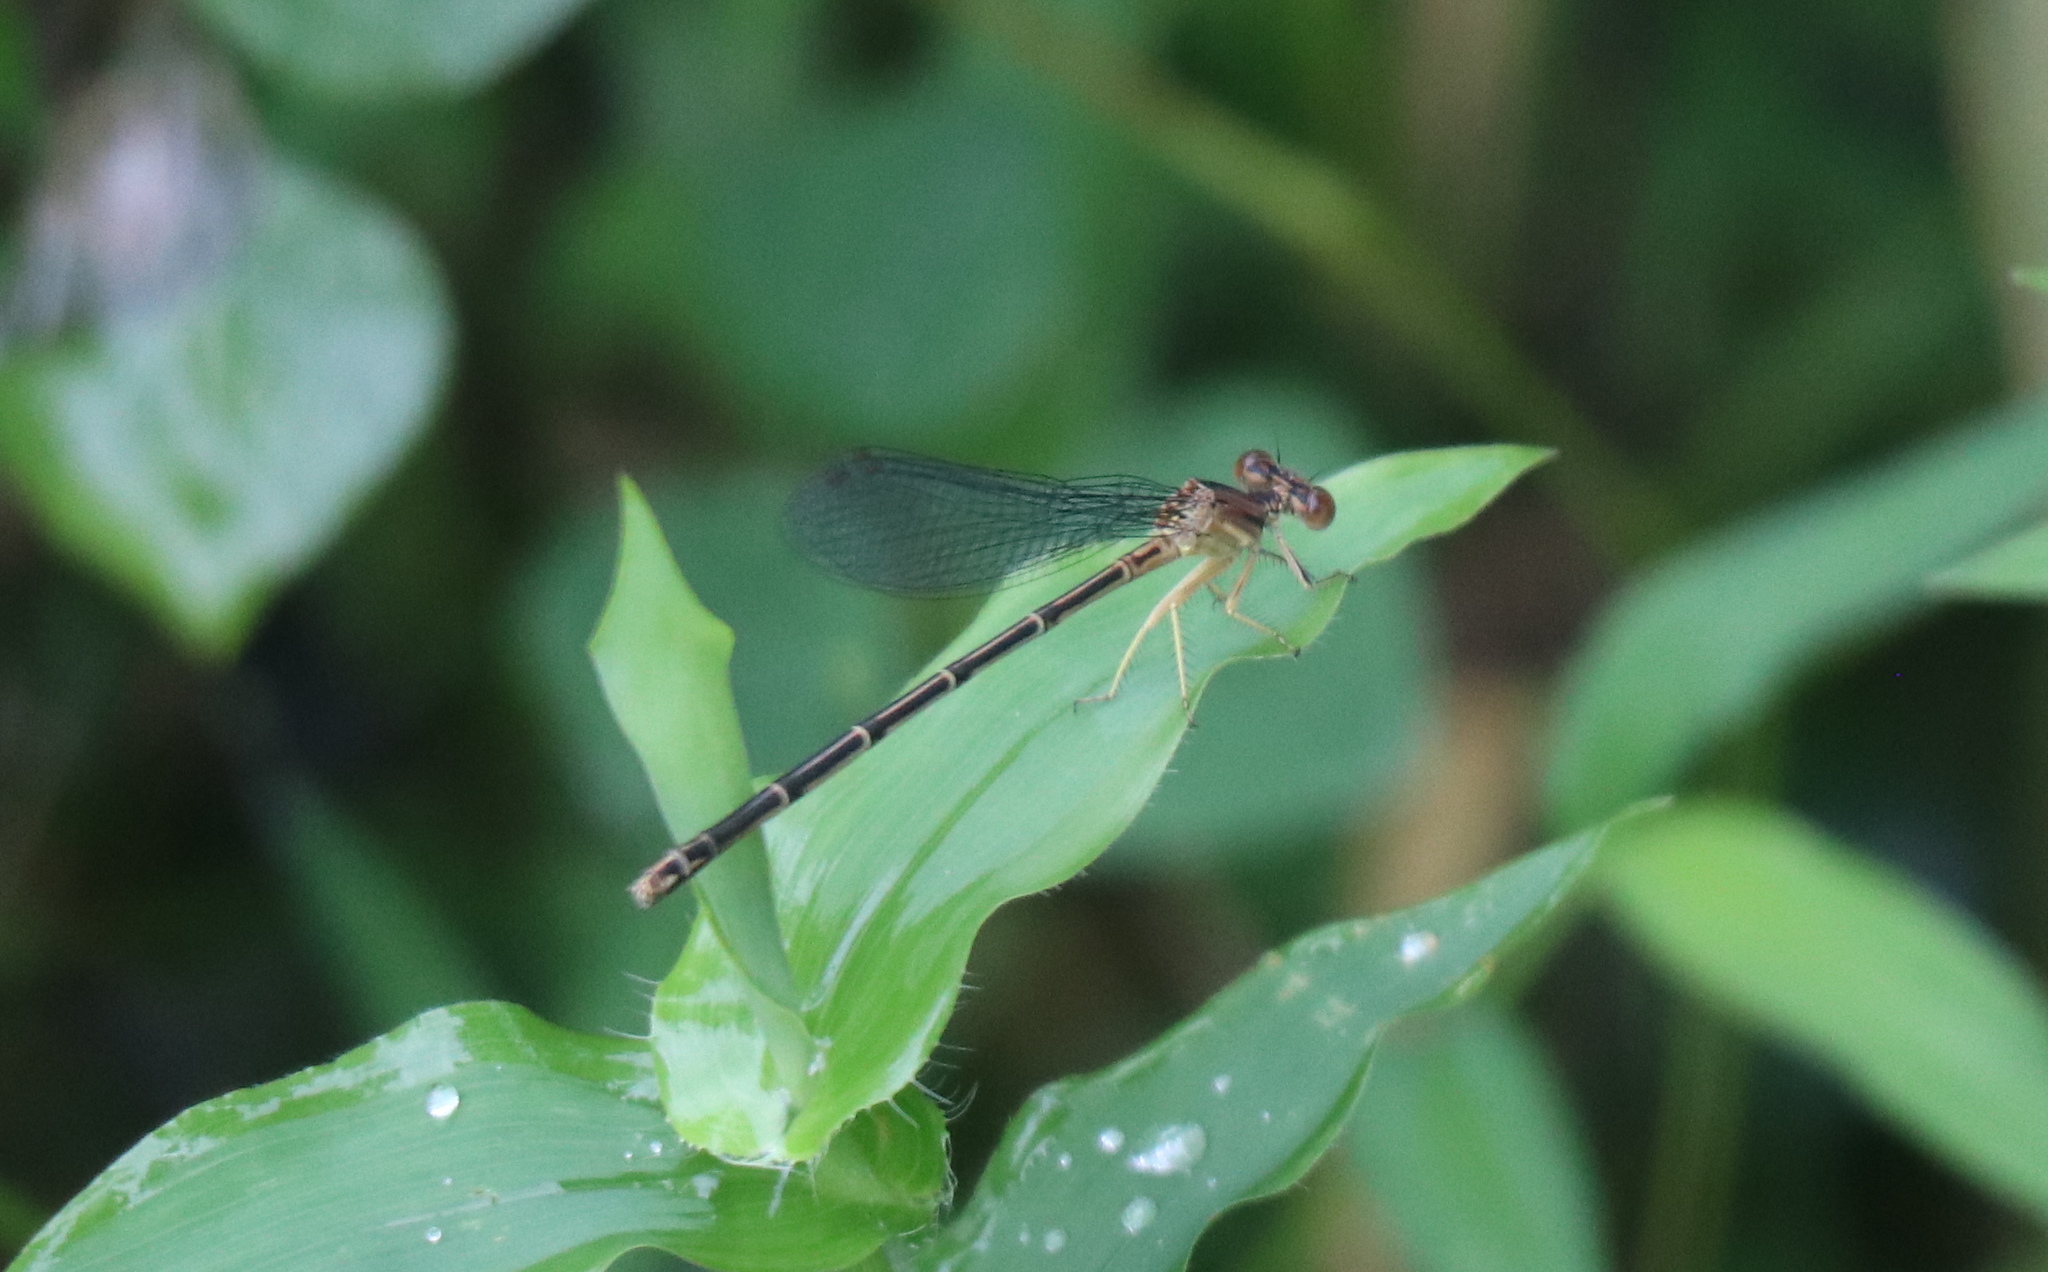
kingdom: Animalia
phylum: Arthropoda
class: Insecta
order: Odonata
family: Coenagrionidae
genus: Argia
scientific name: Argia apicalis
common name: Blue-fronted dancer
